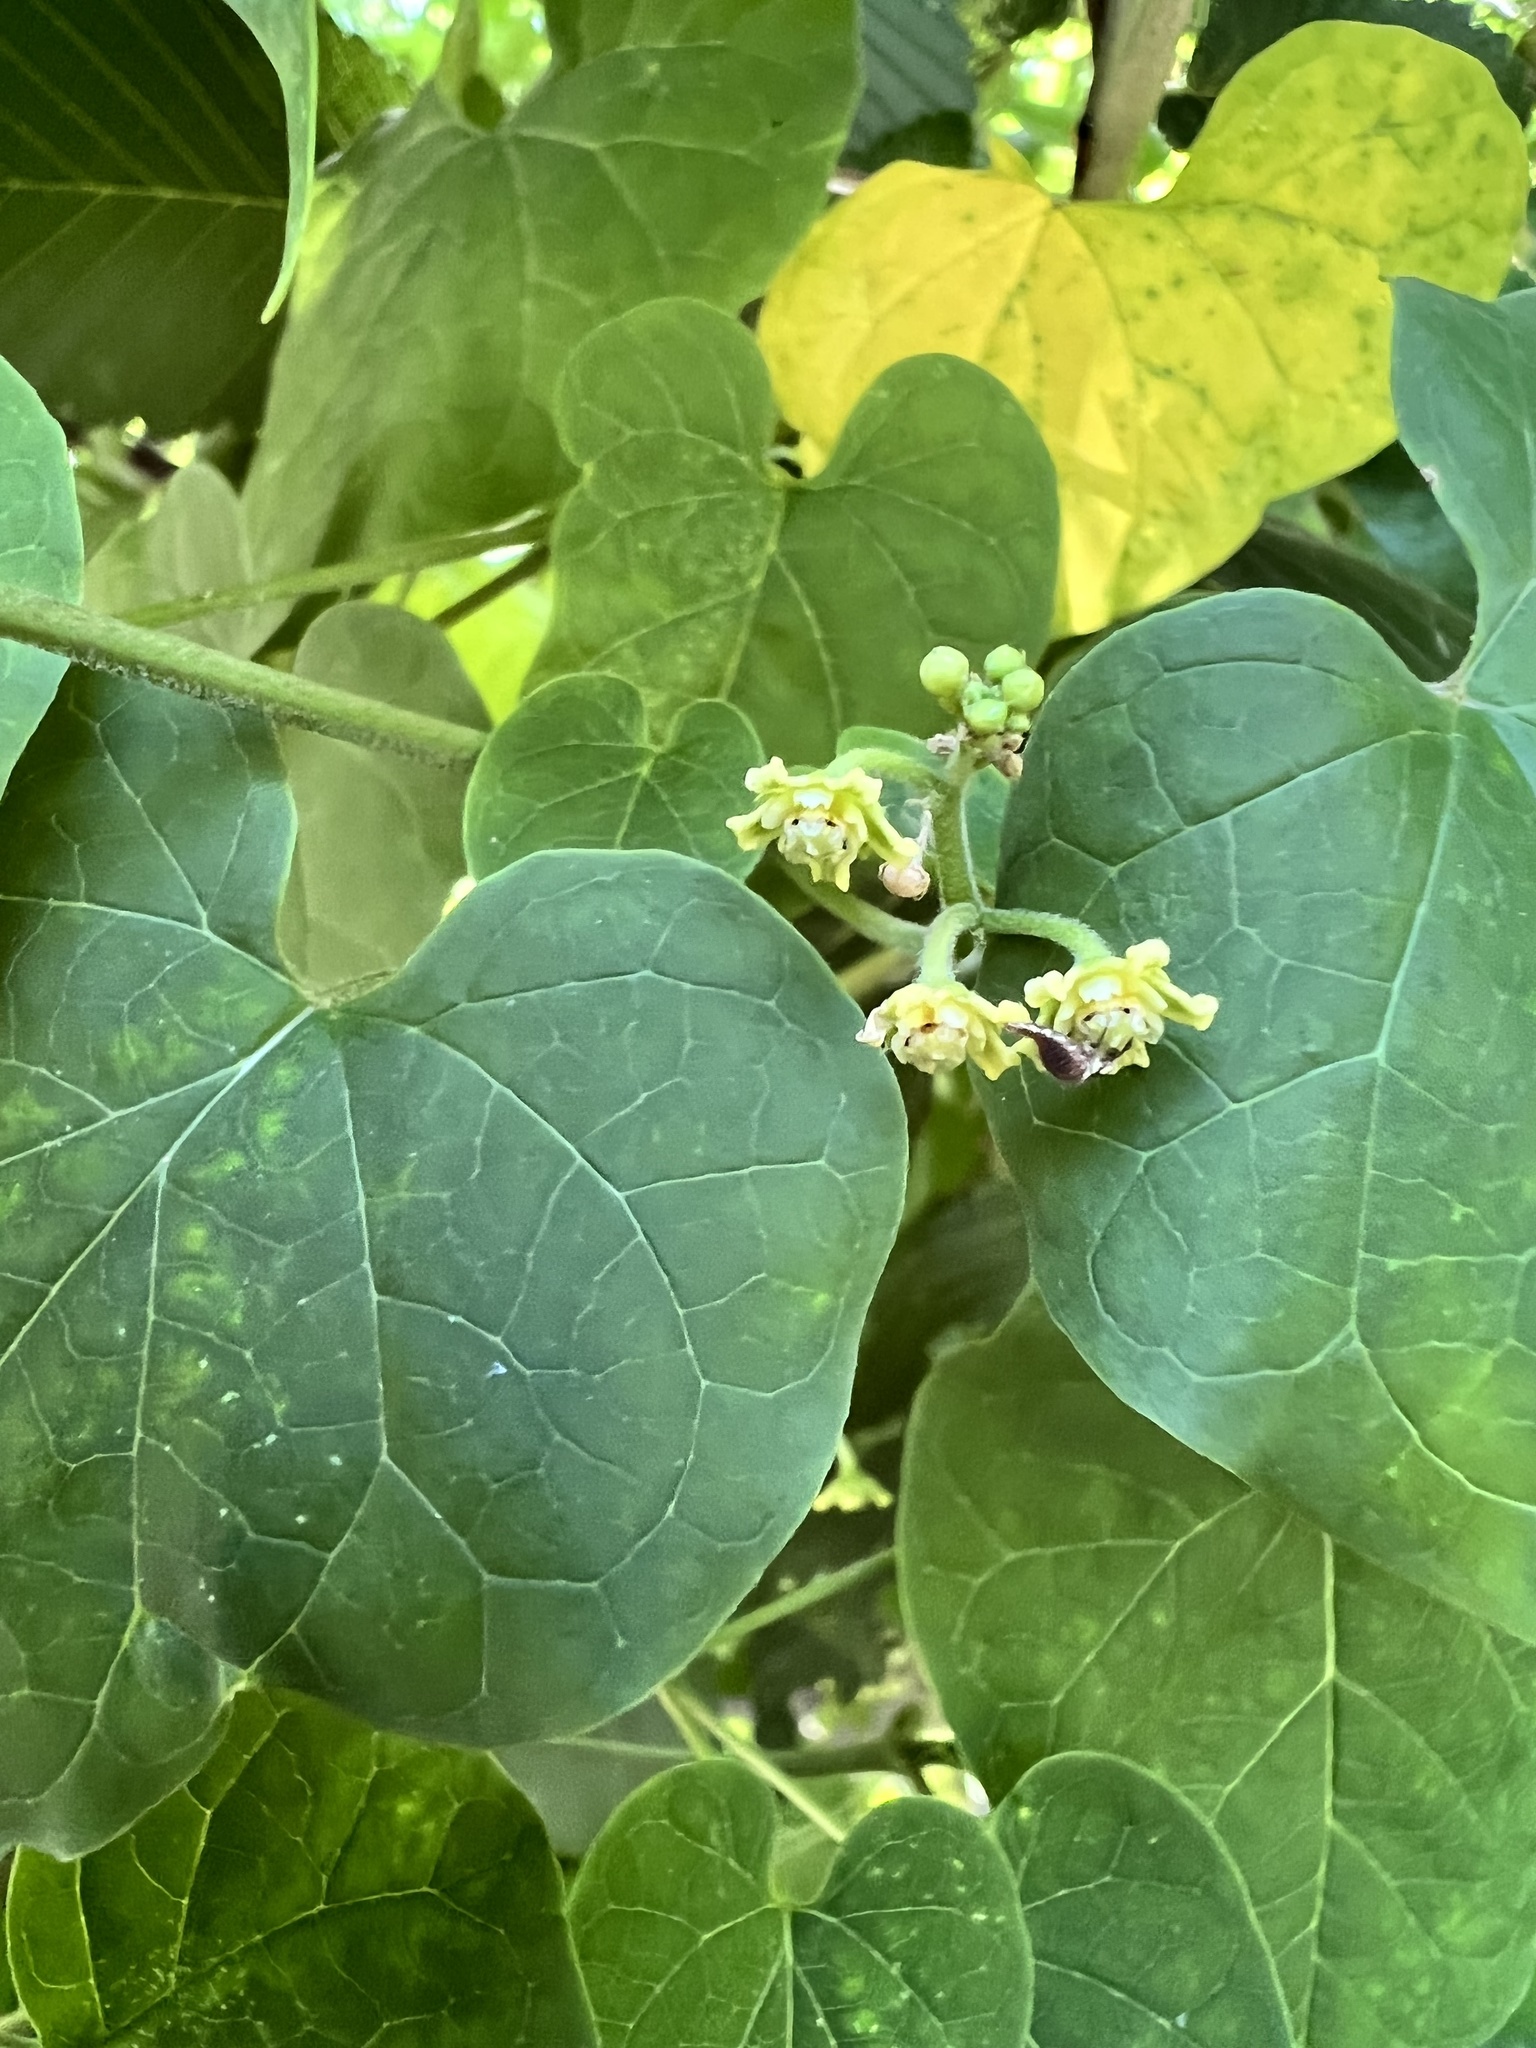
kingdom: Plantae
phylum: Tracheophyta
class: Magnoliopsida
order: Gentianales
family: Apocynaceae
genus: Cynanchum
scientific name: Cynanchum racemosum
